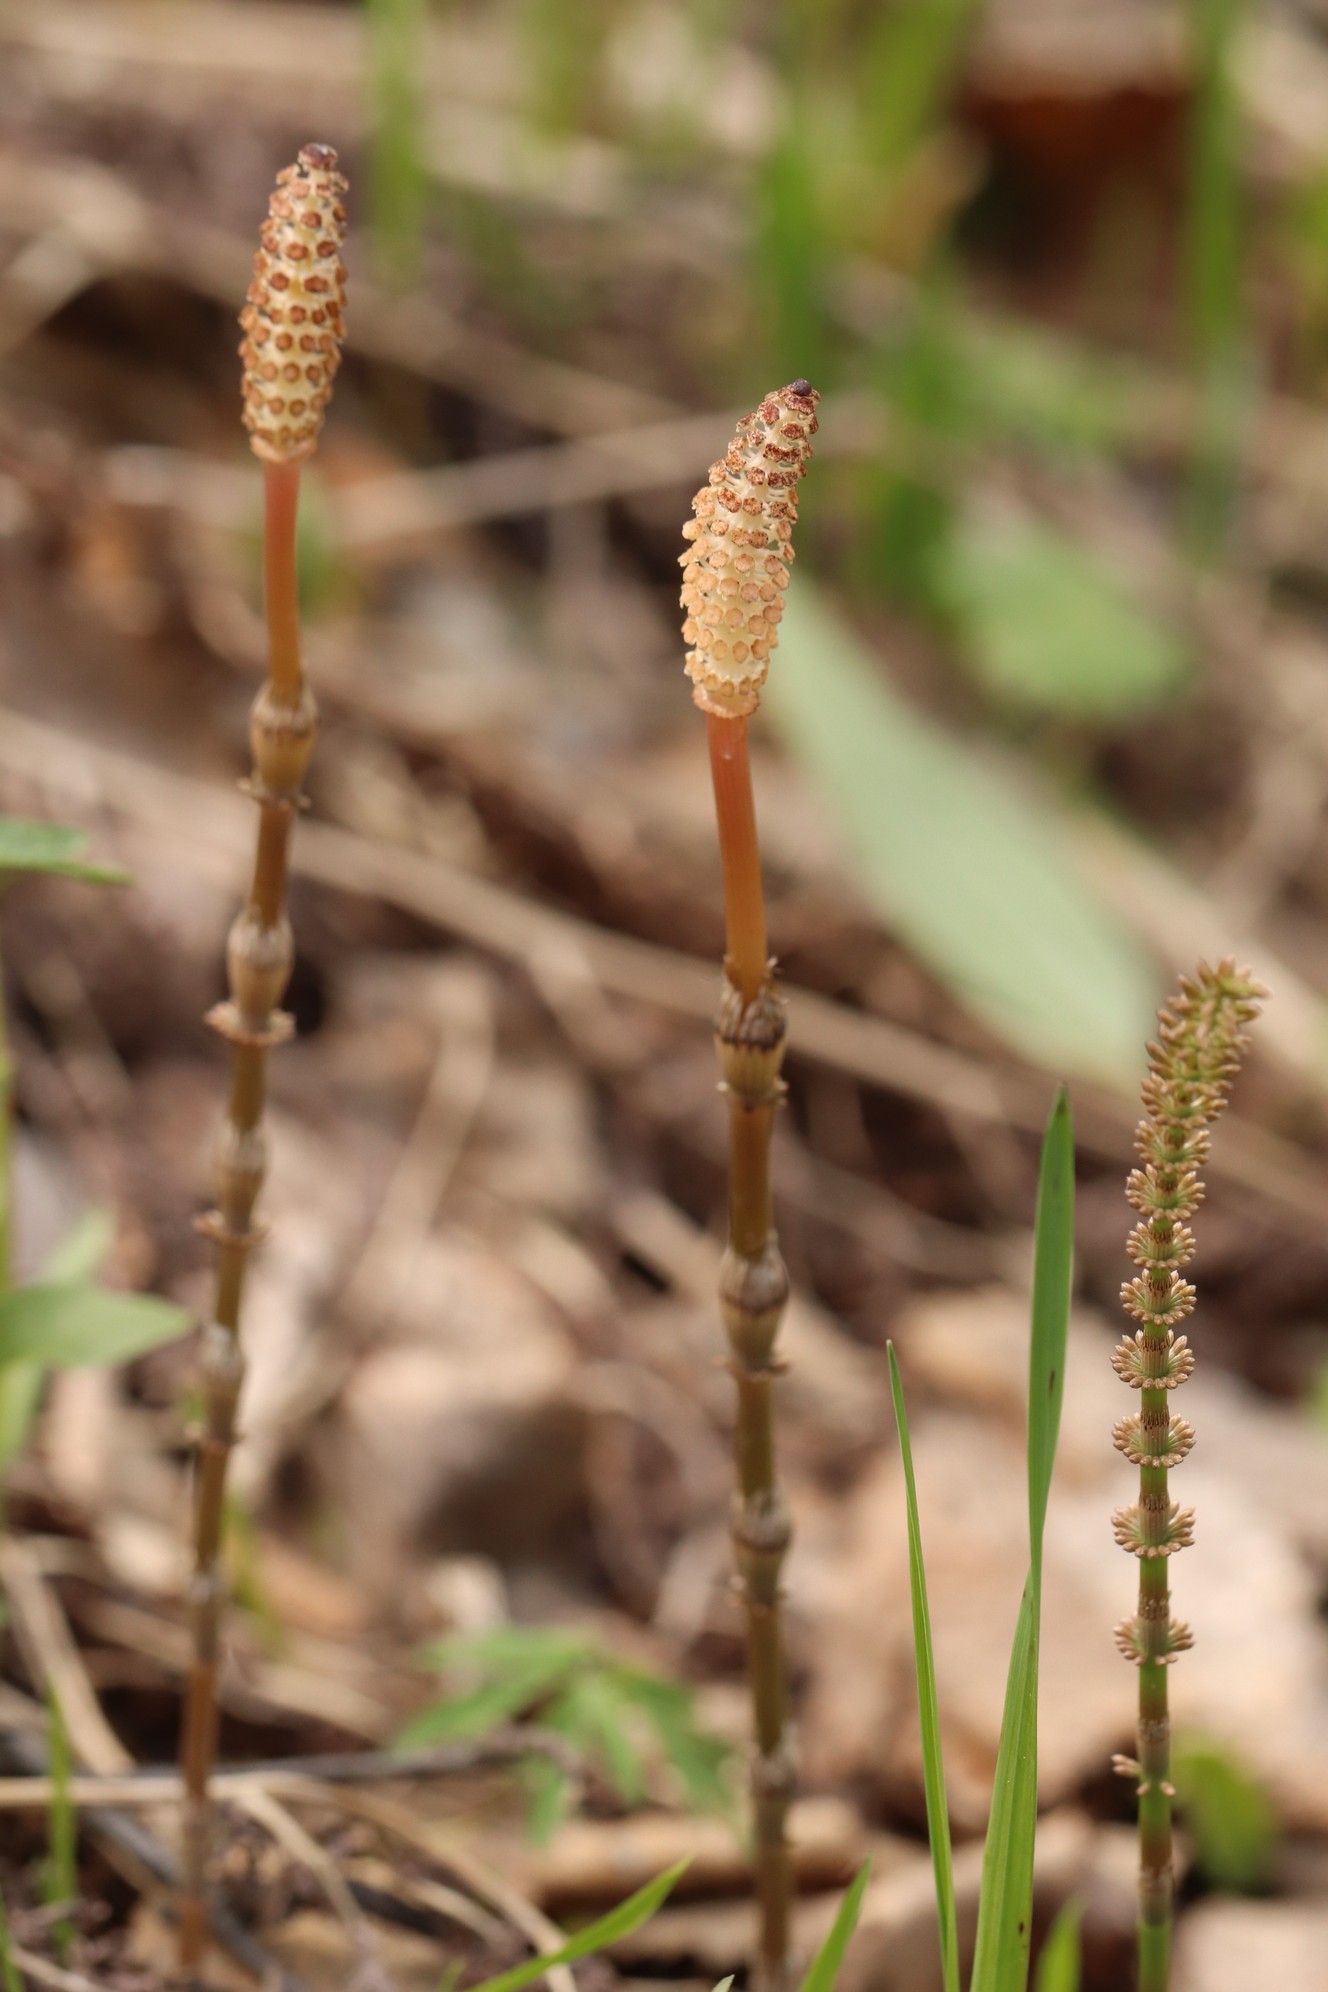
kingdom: Plantae
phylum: Tracheophyta
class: Polypodiopsida
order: Equisetales
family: Equisetaceae
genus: Equisetum
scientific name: Equisetum pratense
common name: Meadow horsetail
